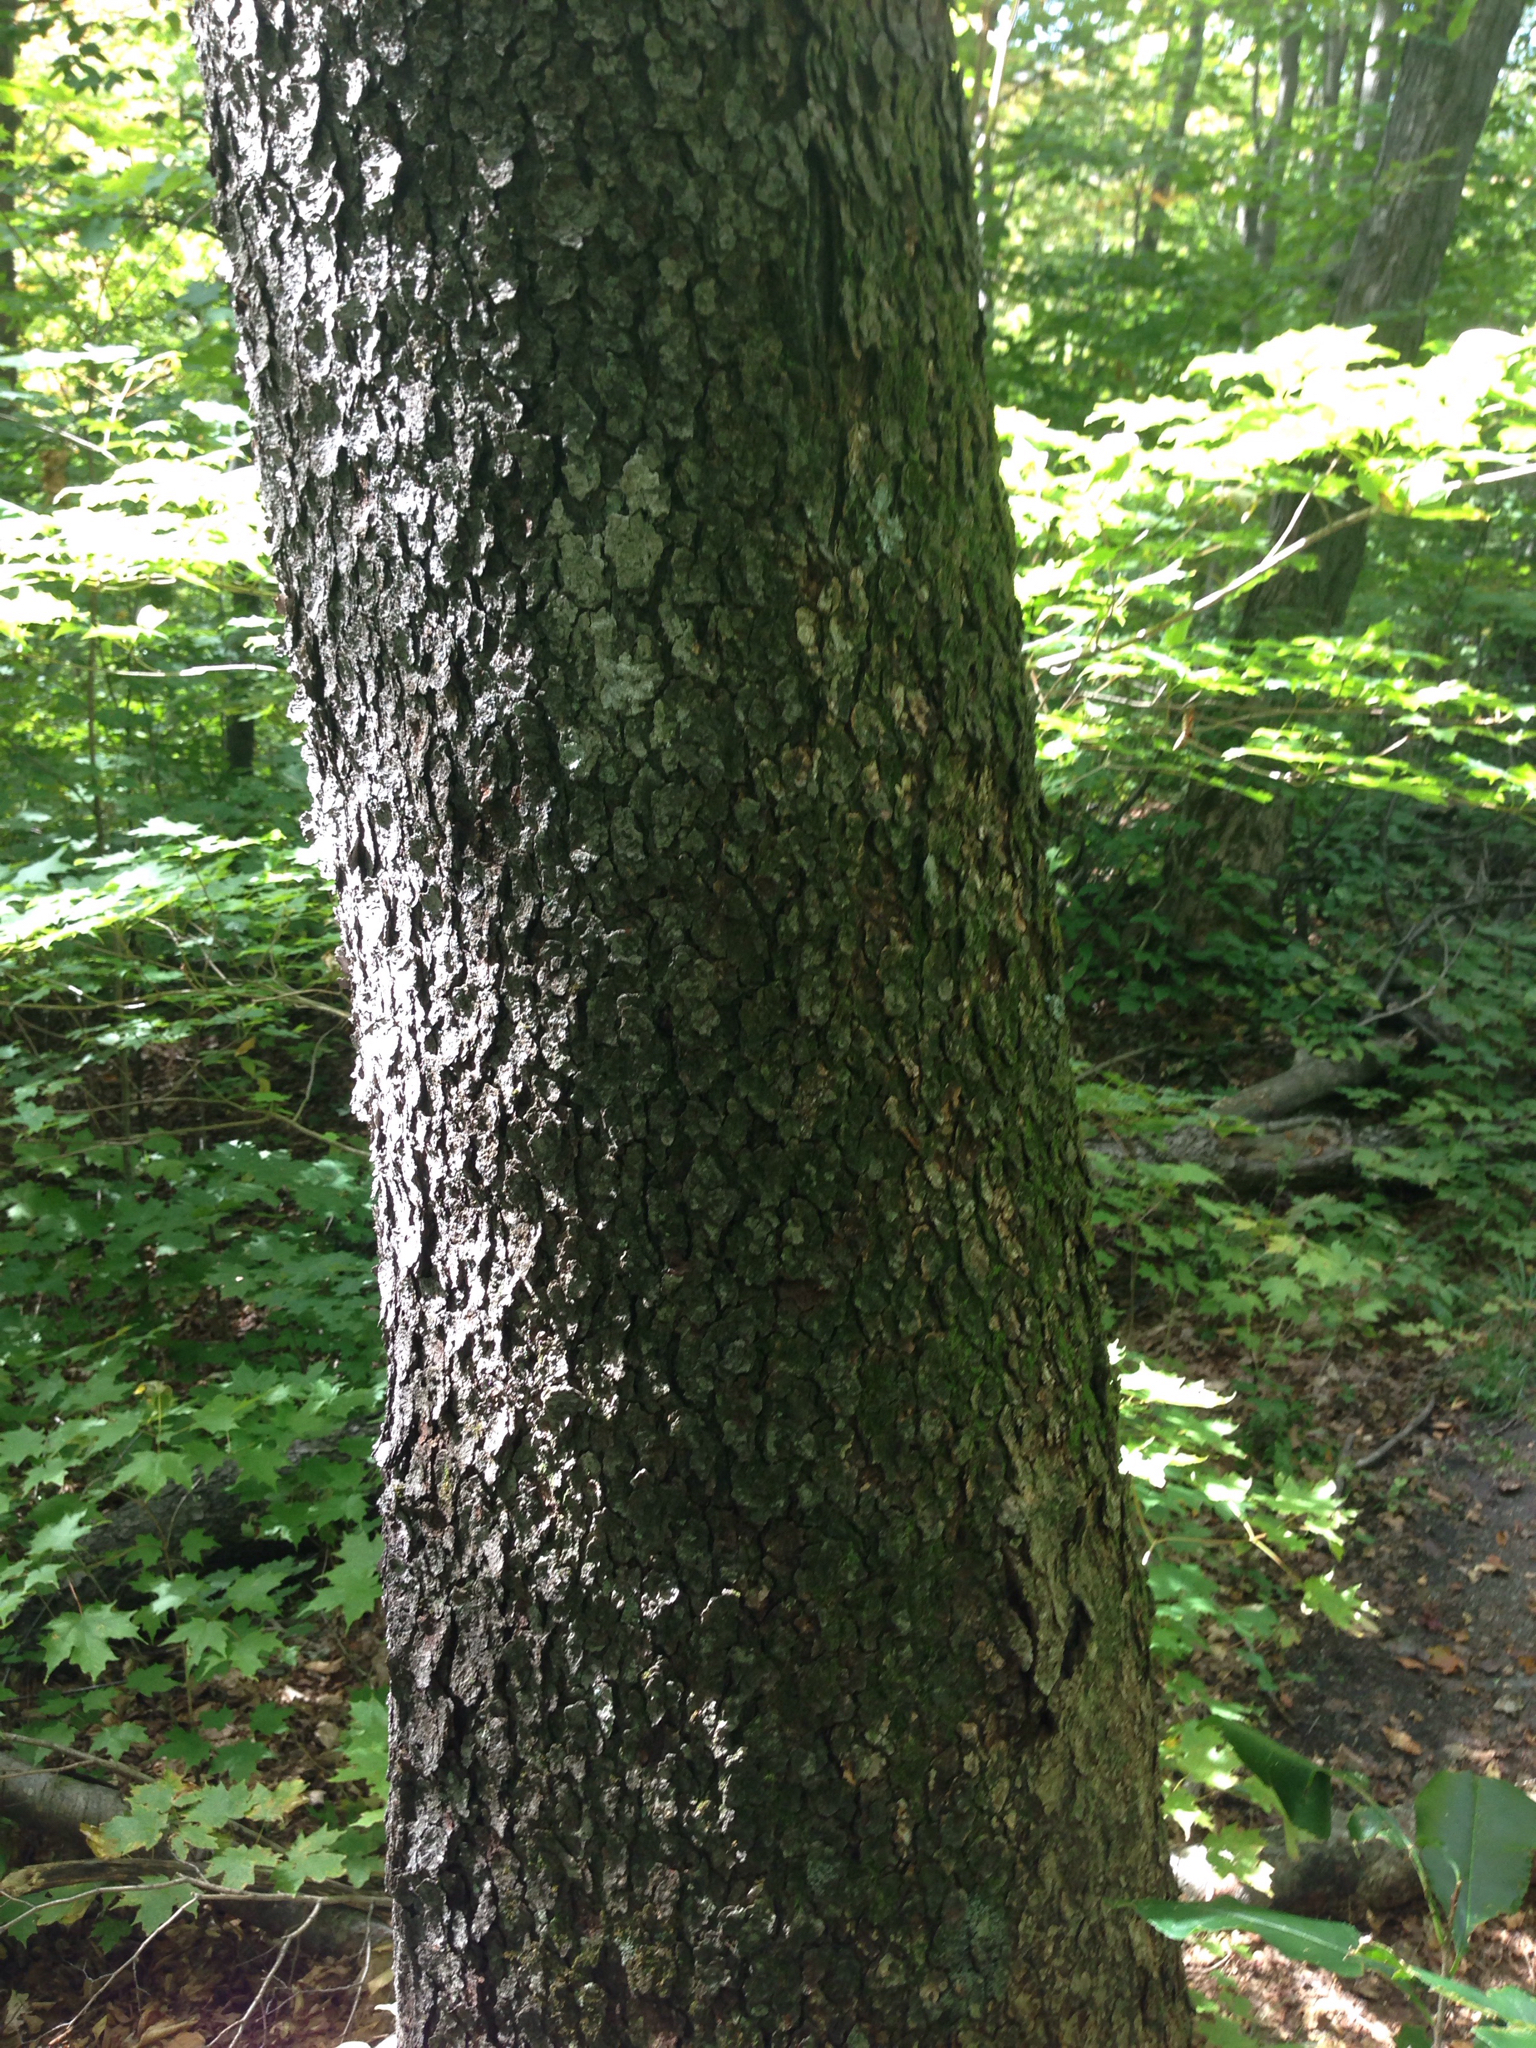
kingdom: Plantae
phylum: Tracheophyta
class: Magnoliopsida
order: Rosales
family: Rosaceae
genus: Prunus
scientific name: Prunus serotina
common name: Black cherry
